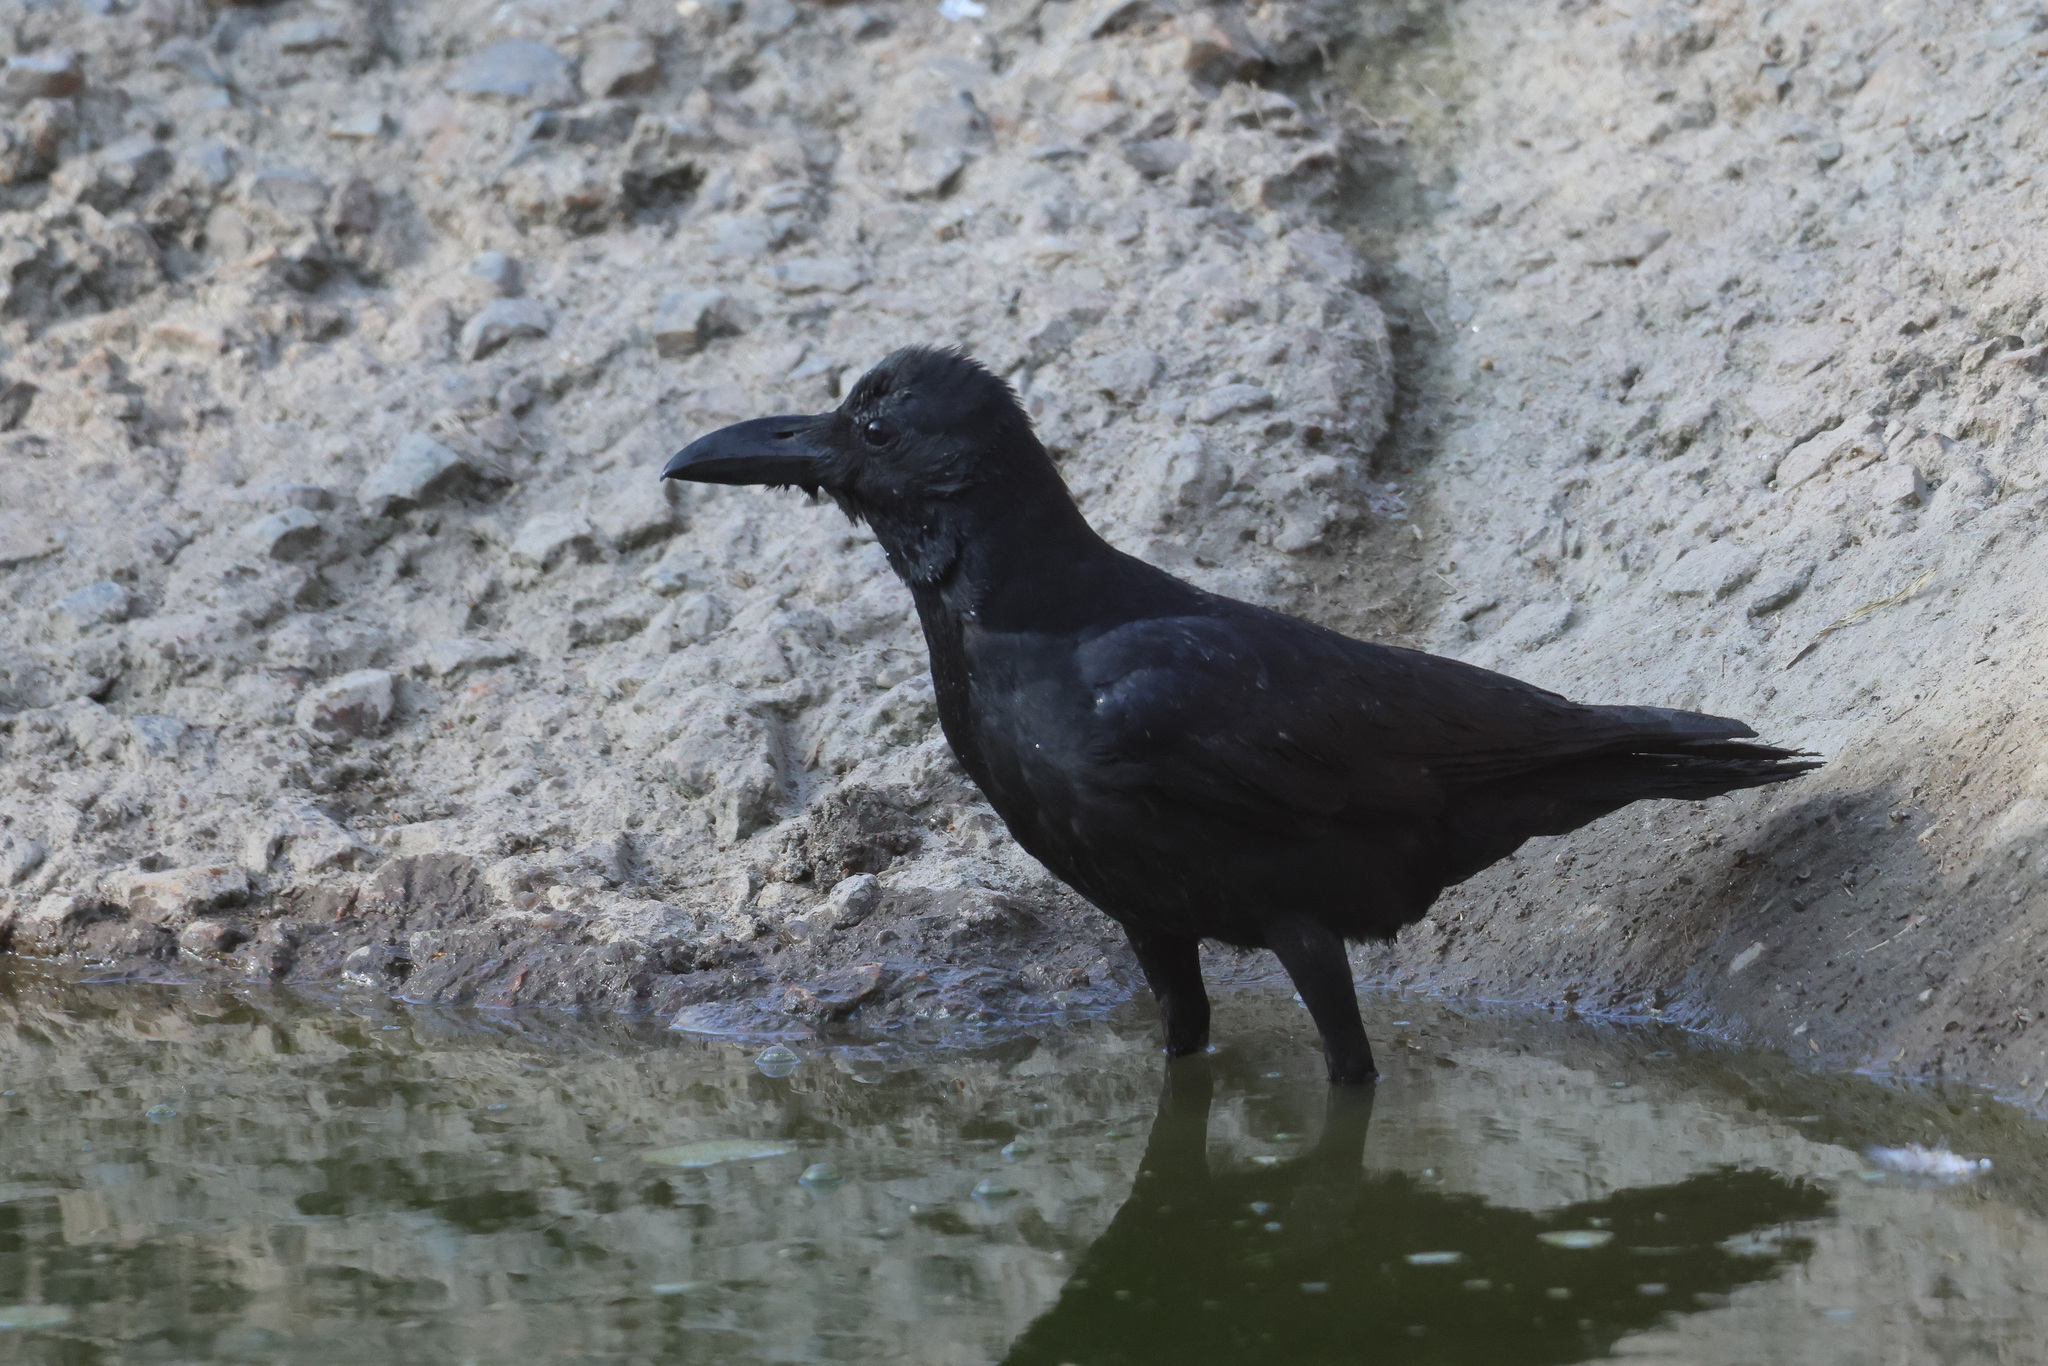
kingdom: Animalia
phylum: Chordata
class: Aves
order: Passeriformes
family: Corvidae
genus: Corvus
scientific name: Corvus macrorhynchos
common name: Large-billed crow
